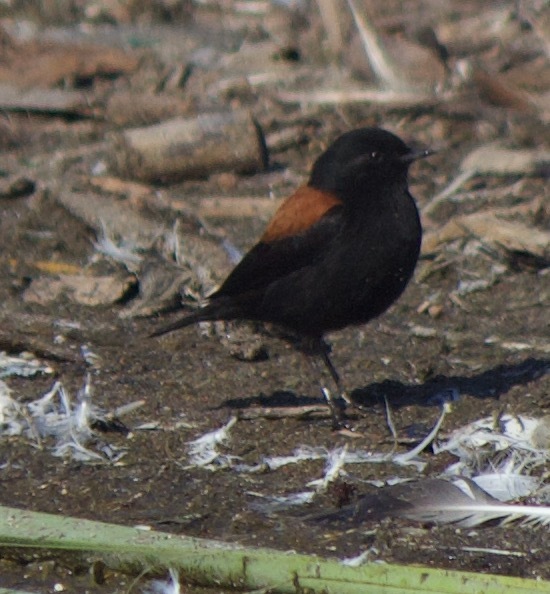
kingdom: Animalia
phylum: Chordata
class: Aves
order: Passeriformes
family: Tyrannidae
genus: Lessonia
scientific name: Lessonia rufa
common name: Austral negrito
